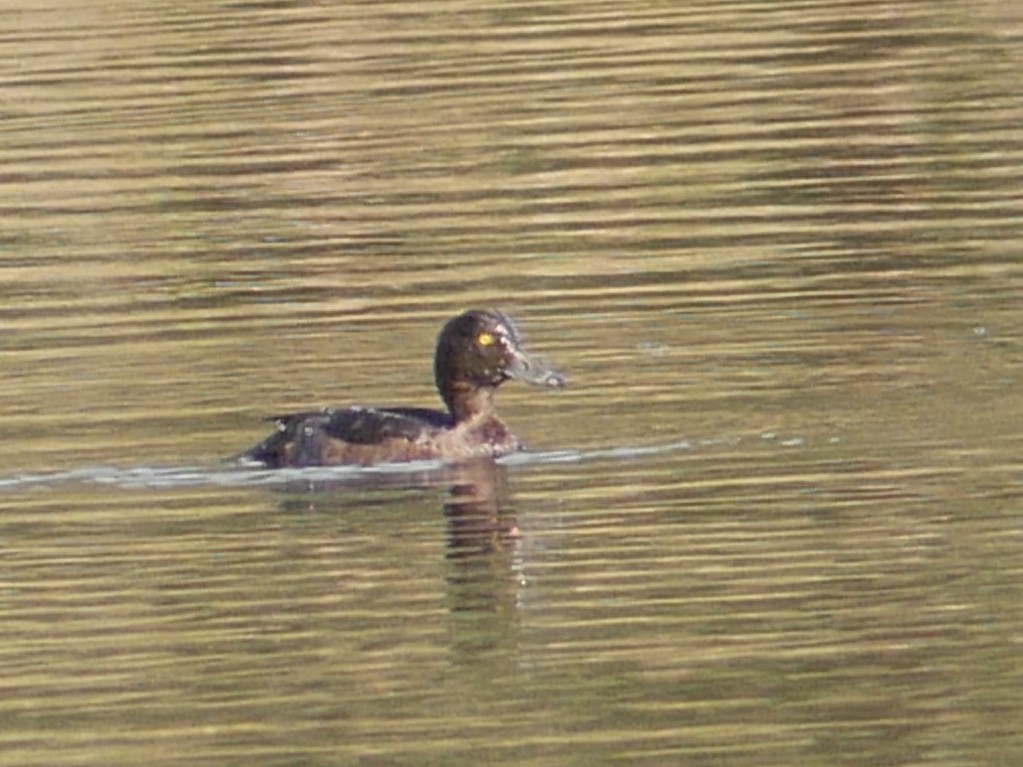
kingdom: Animalia
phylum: Chordata
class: Aves
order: Anseriformes
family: Anatidae
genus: Aythya
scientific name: Aythya fuligula
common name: Tufted duck
